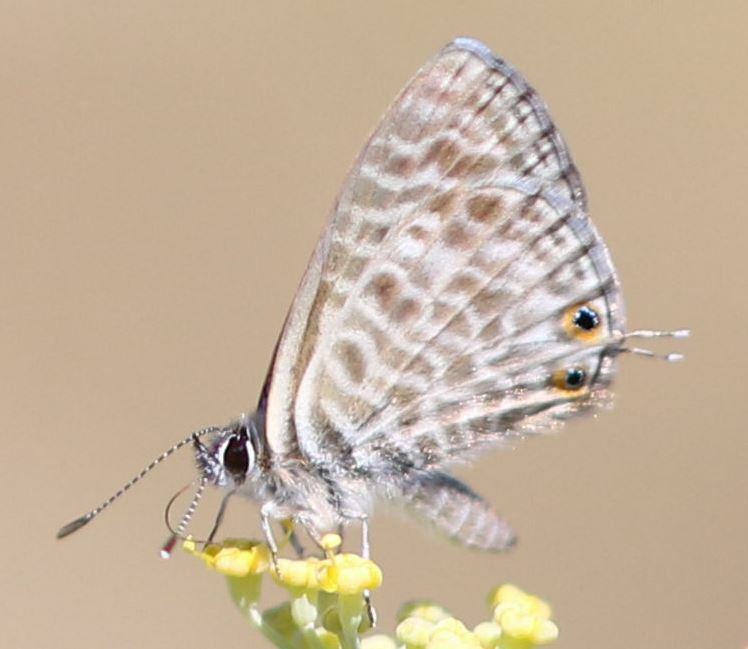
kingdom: Animalia
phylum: Arthropoda
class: Insecta
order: Lepidoptera
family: Lycaenidae
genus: Leptotes
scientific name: Leptotes pirithous
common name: Lang's short-tailed blue
